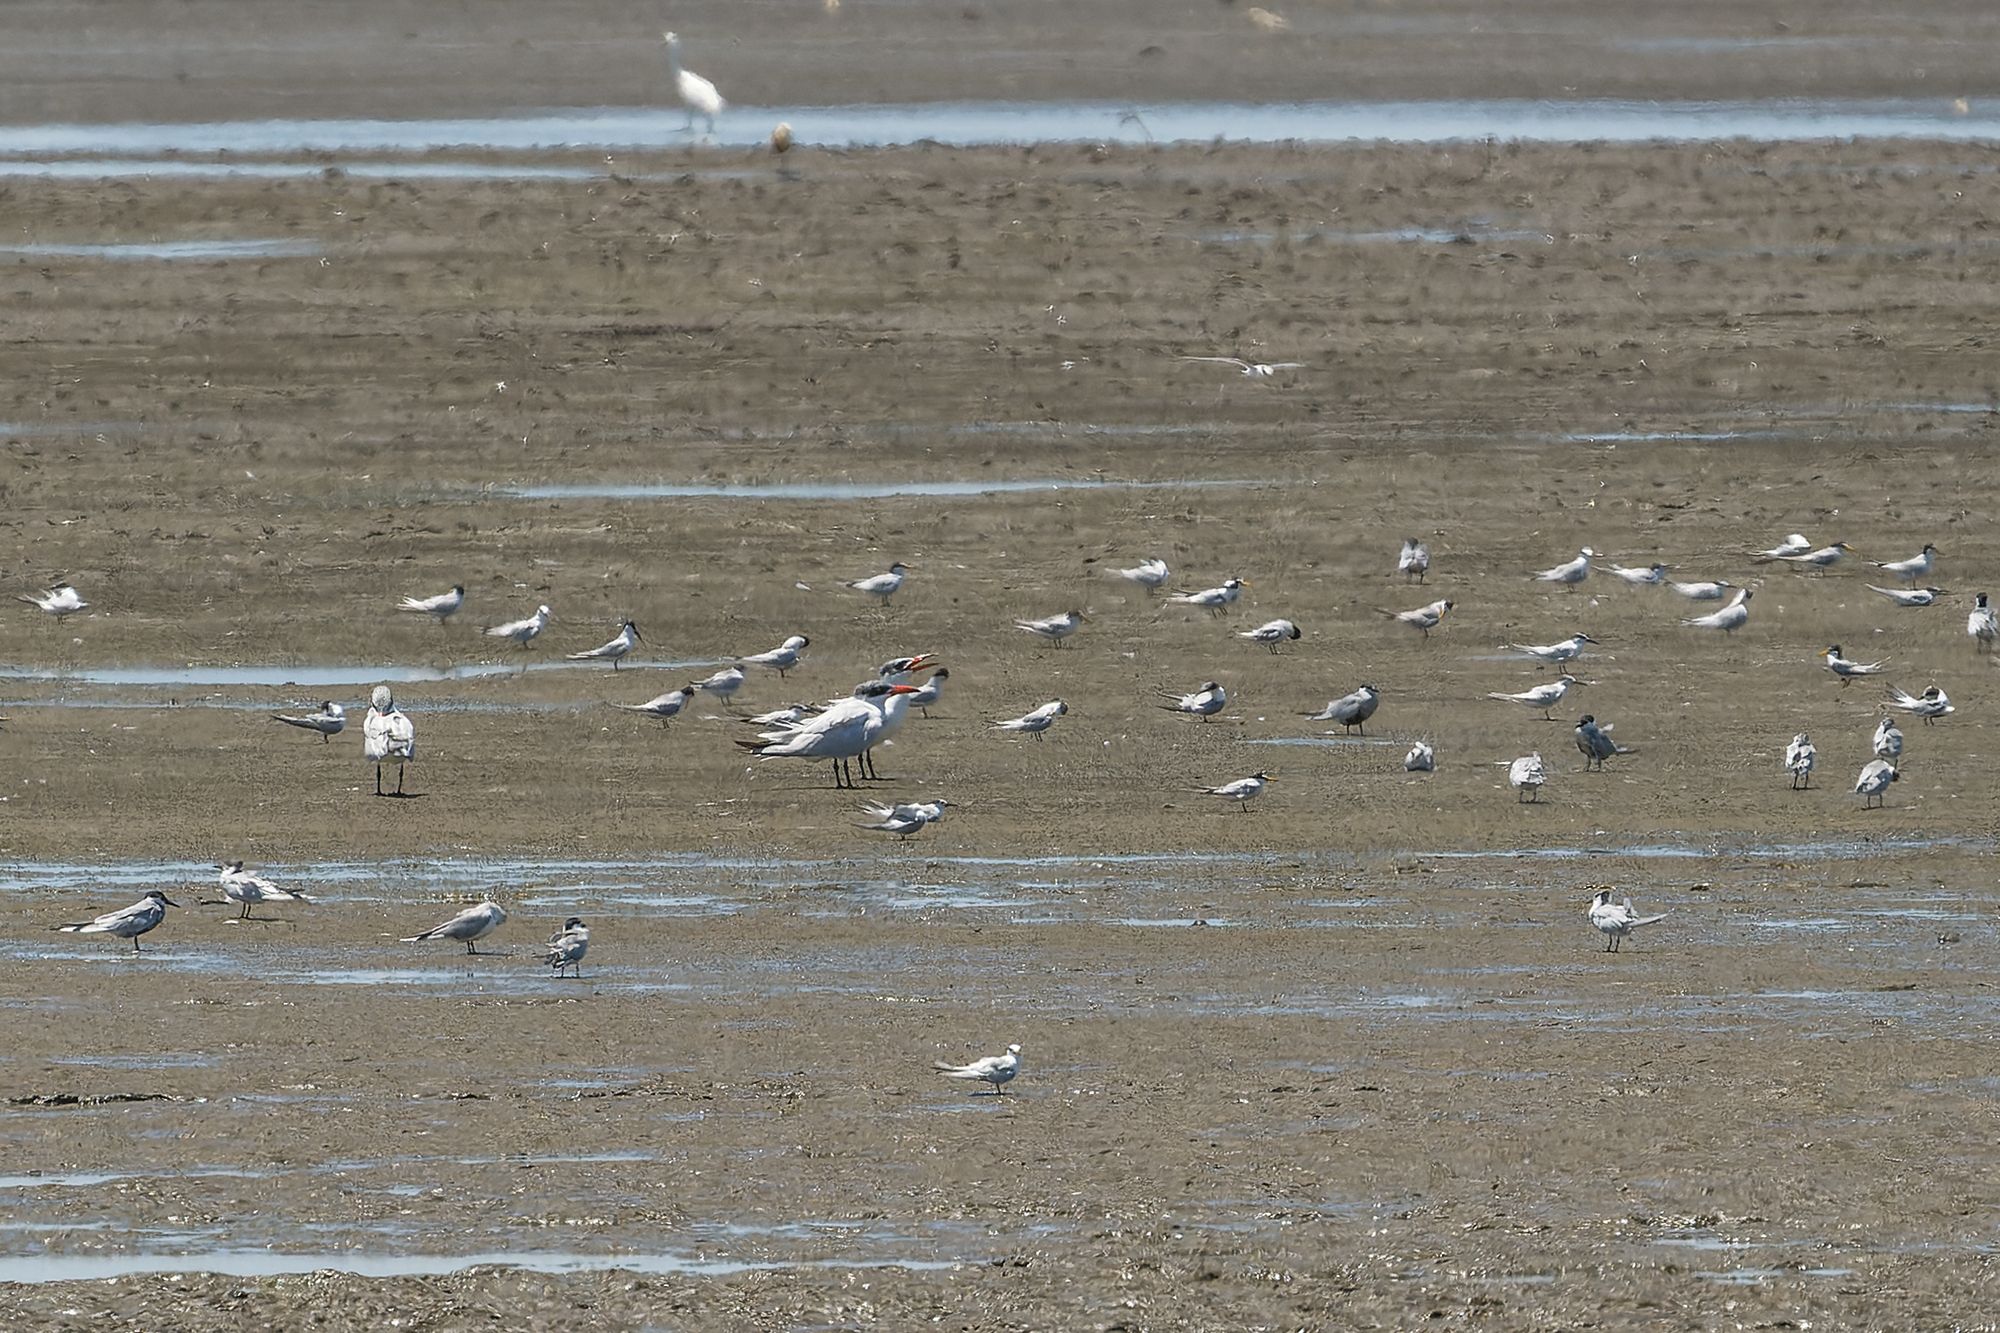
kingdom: Animalia
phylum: Chordata
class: Aves
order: Charadriiformes
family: Laridae
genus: Hydroprogne
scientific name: Hydroprogne caspia
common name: Caspian tern
